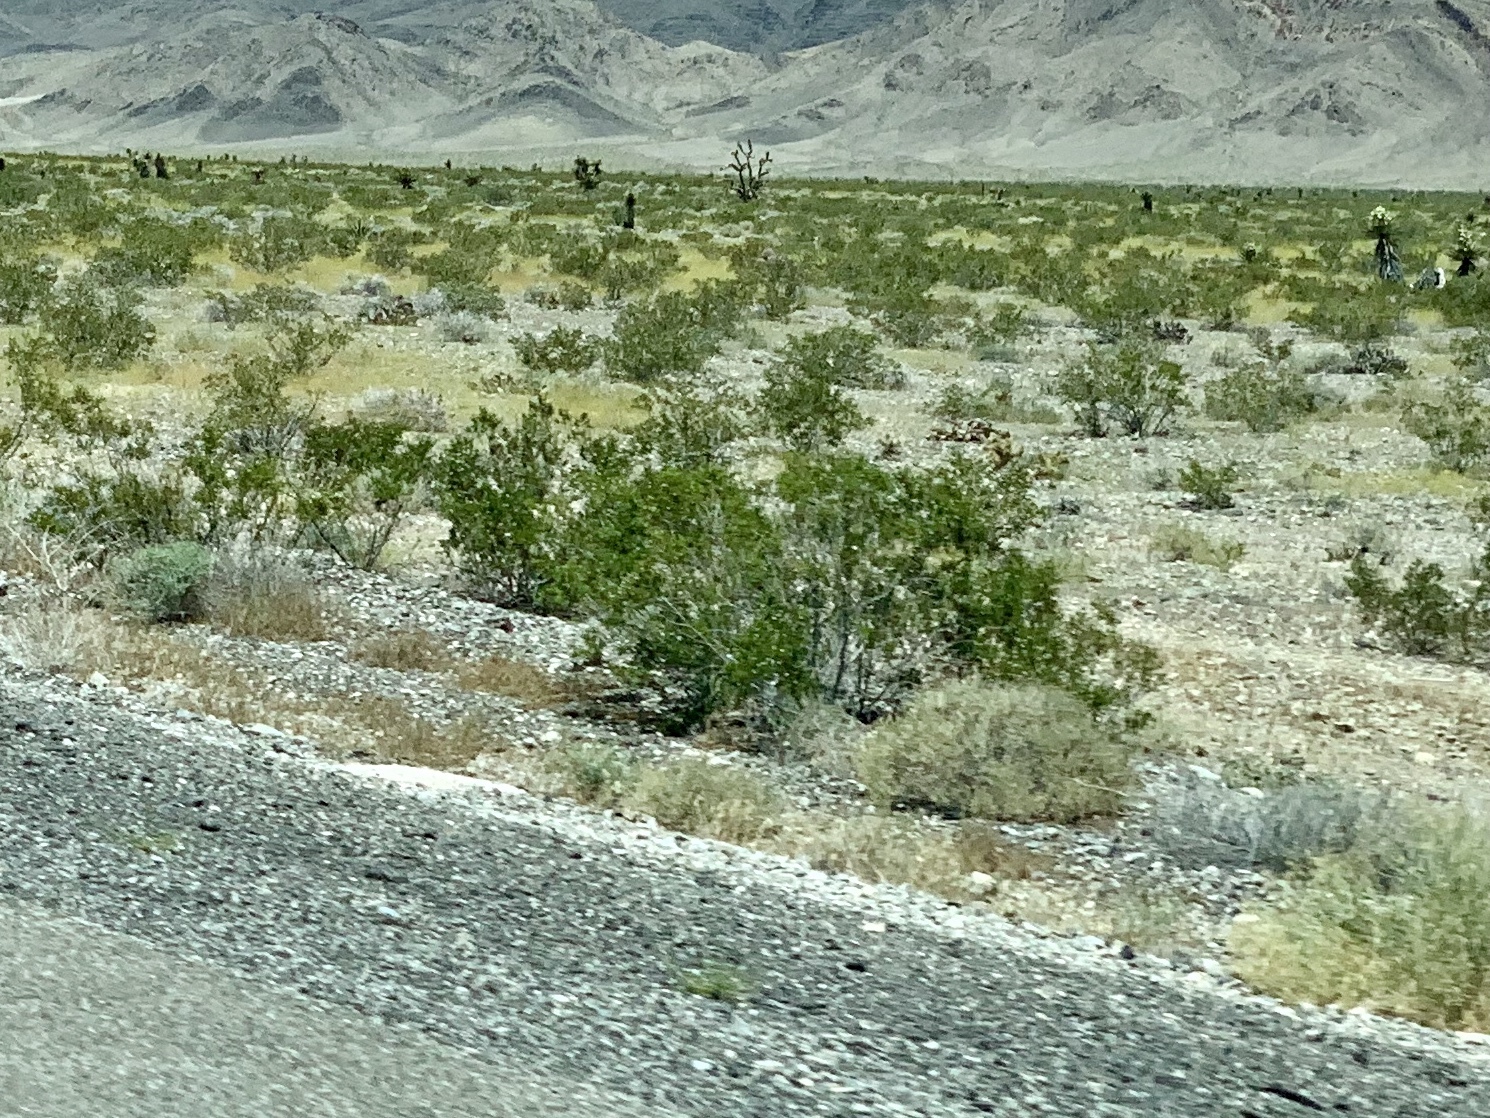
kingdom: Plantae
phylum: Tracheophyta
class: Magnoliopsida
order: Zygophyllales
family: Zygophyllaceae
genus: Larrea
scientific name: Larrea tridentata
